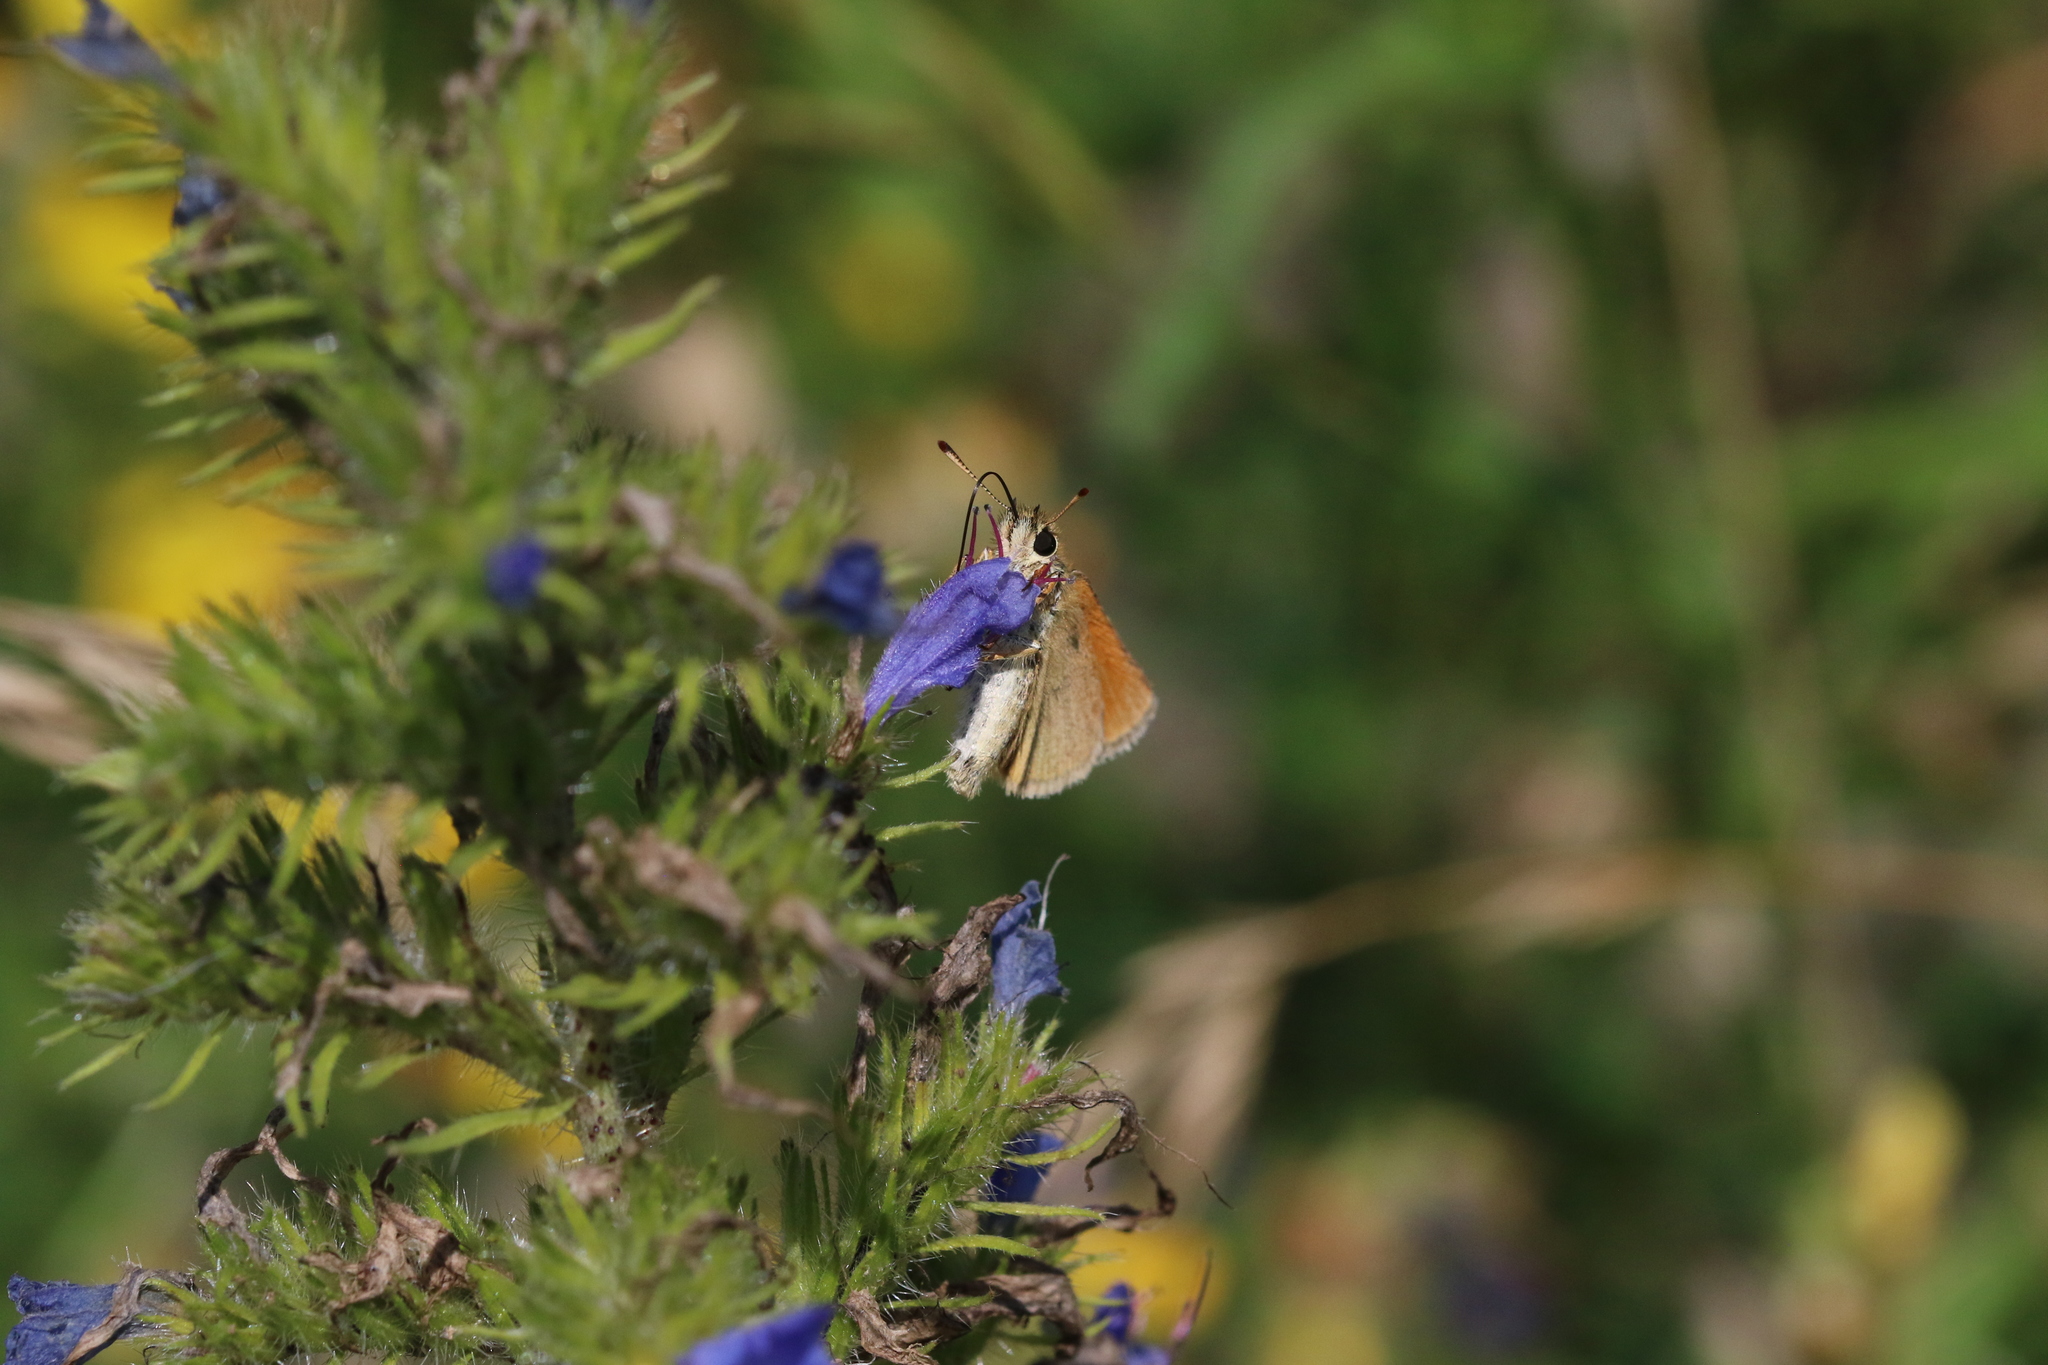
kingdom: Animalia
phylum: Arthropoda
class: Insecta
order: Lepidoptera
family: Hesperiidae
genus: Thymelicus
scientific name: Thymelicus lineola
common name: Essex skipper
